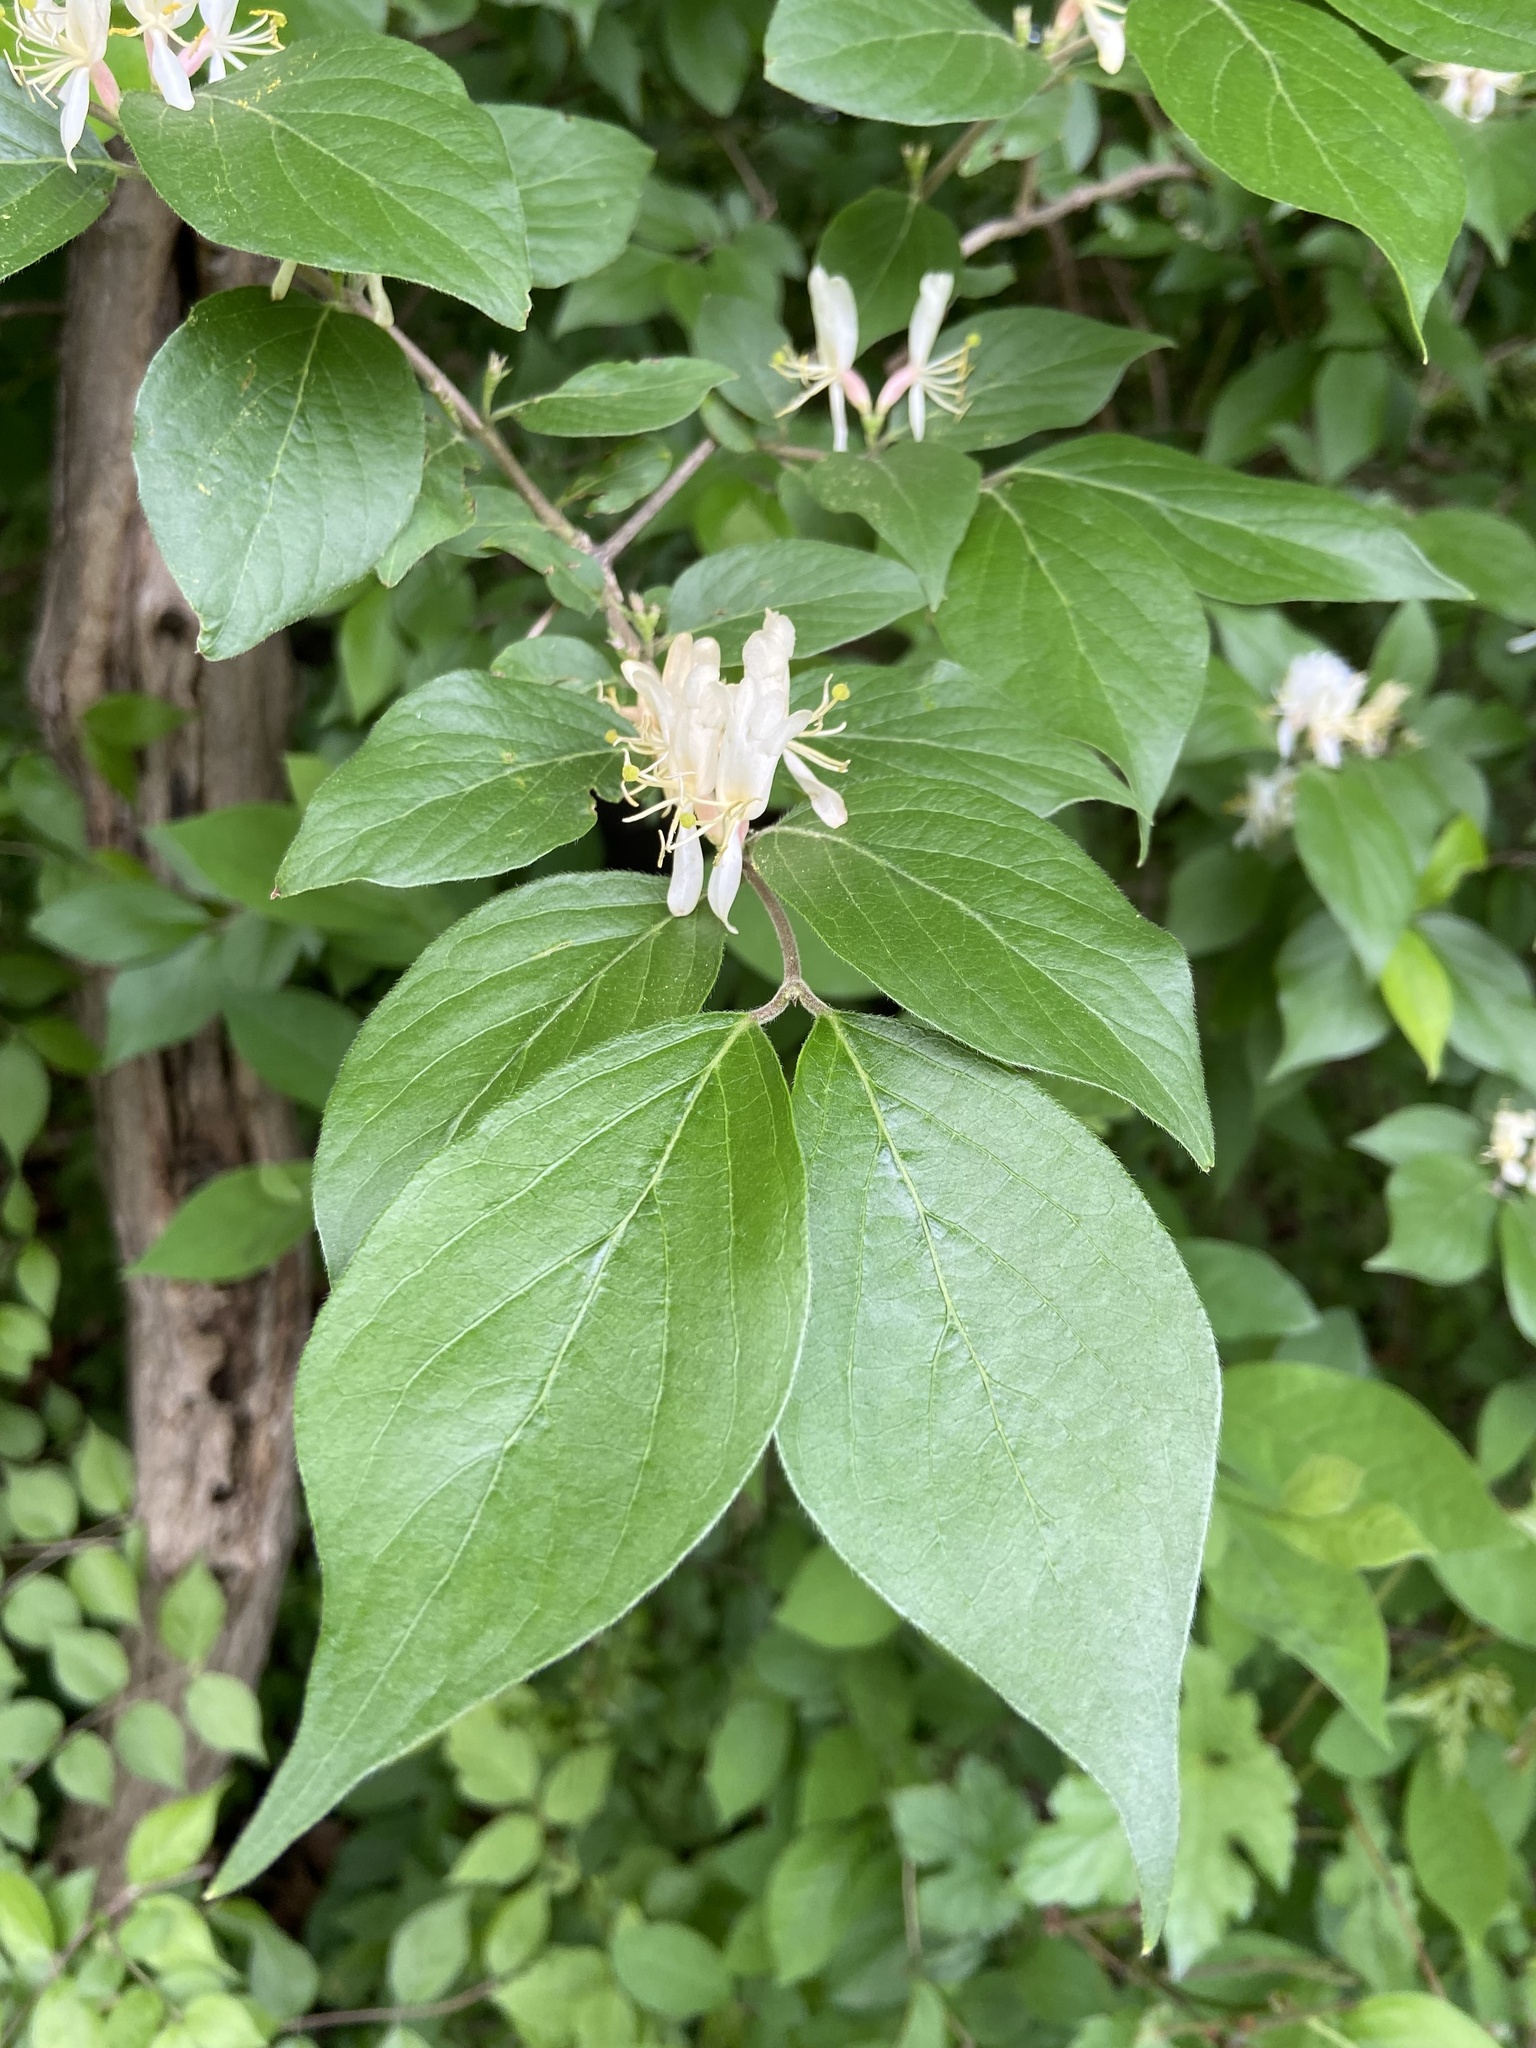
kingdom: Plantae
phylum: Tracheophyta
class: Magnoliopsida
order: Dipsacales
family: Caprifoliaceae
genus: Lonicera
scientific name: Lonicera maackii
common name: Amur honeysuckle
